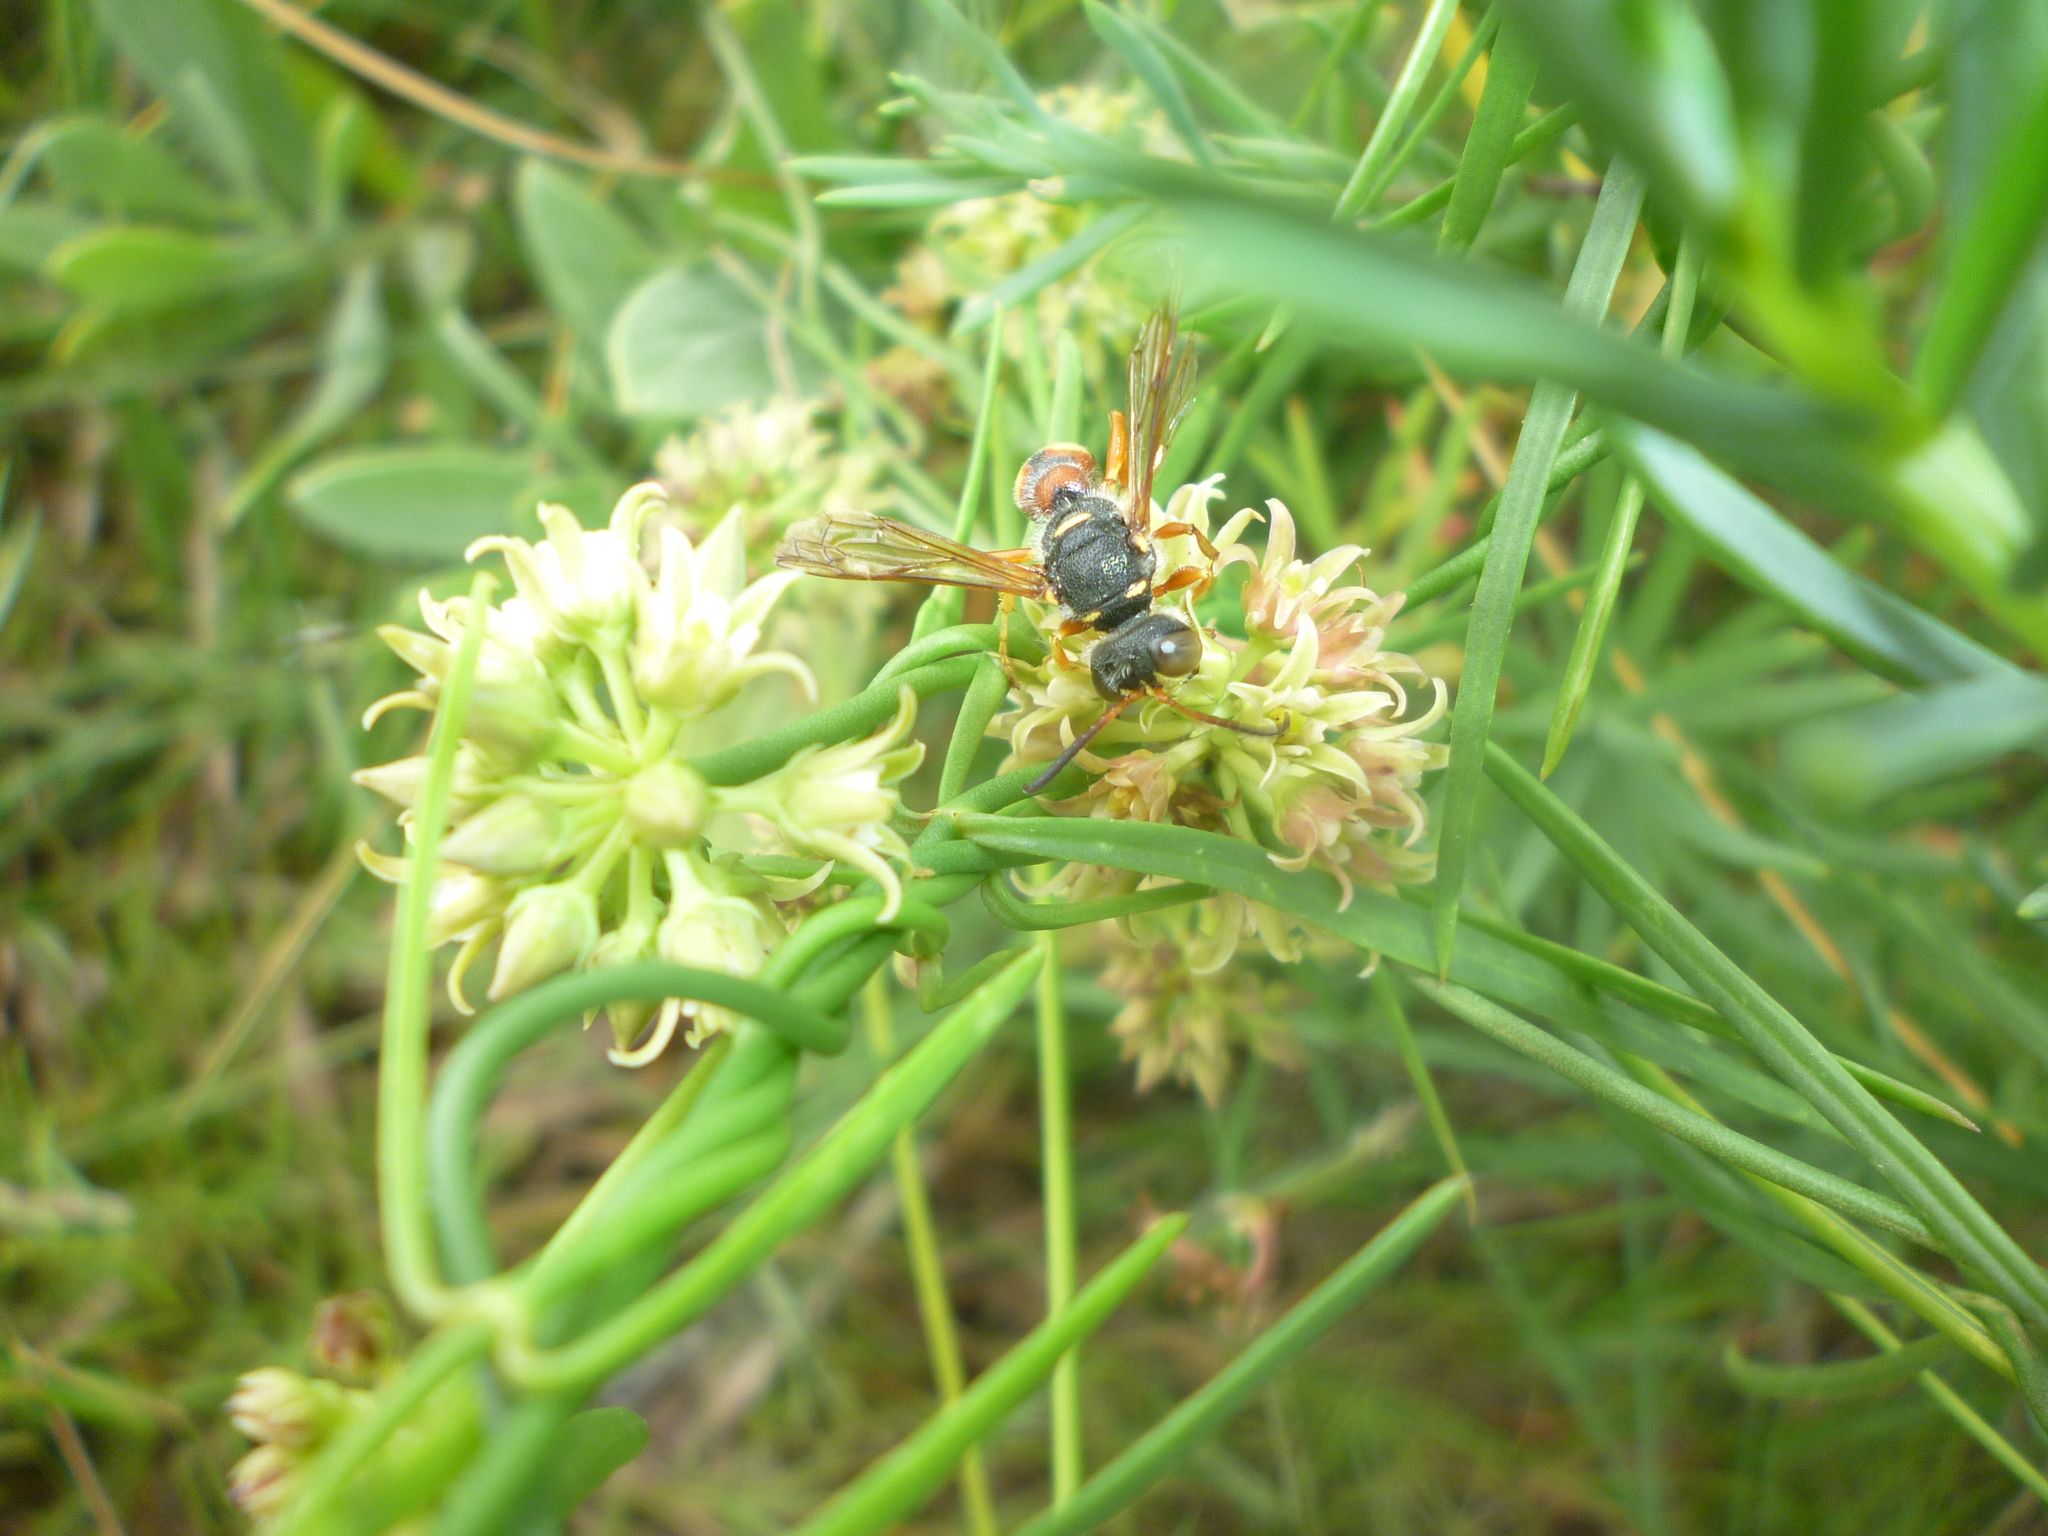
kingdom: Plantae
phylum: Tracheophyta
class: Magnoliopsida
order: Gentianales
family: Apocynaceae
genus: Pattalias
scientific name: Pattalias
